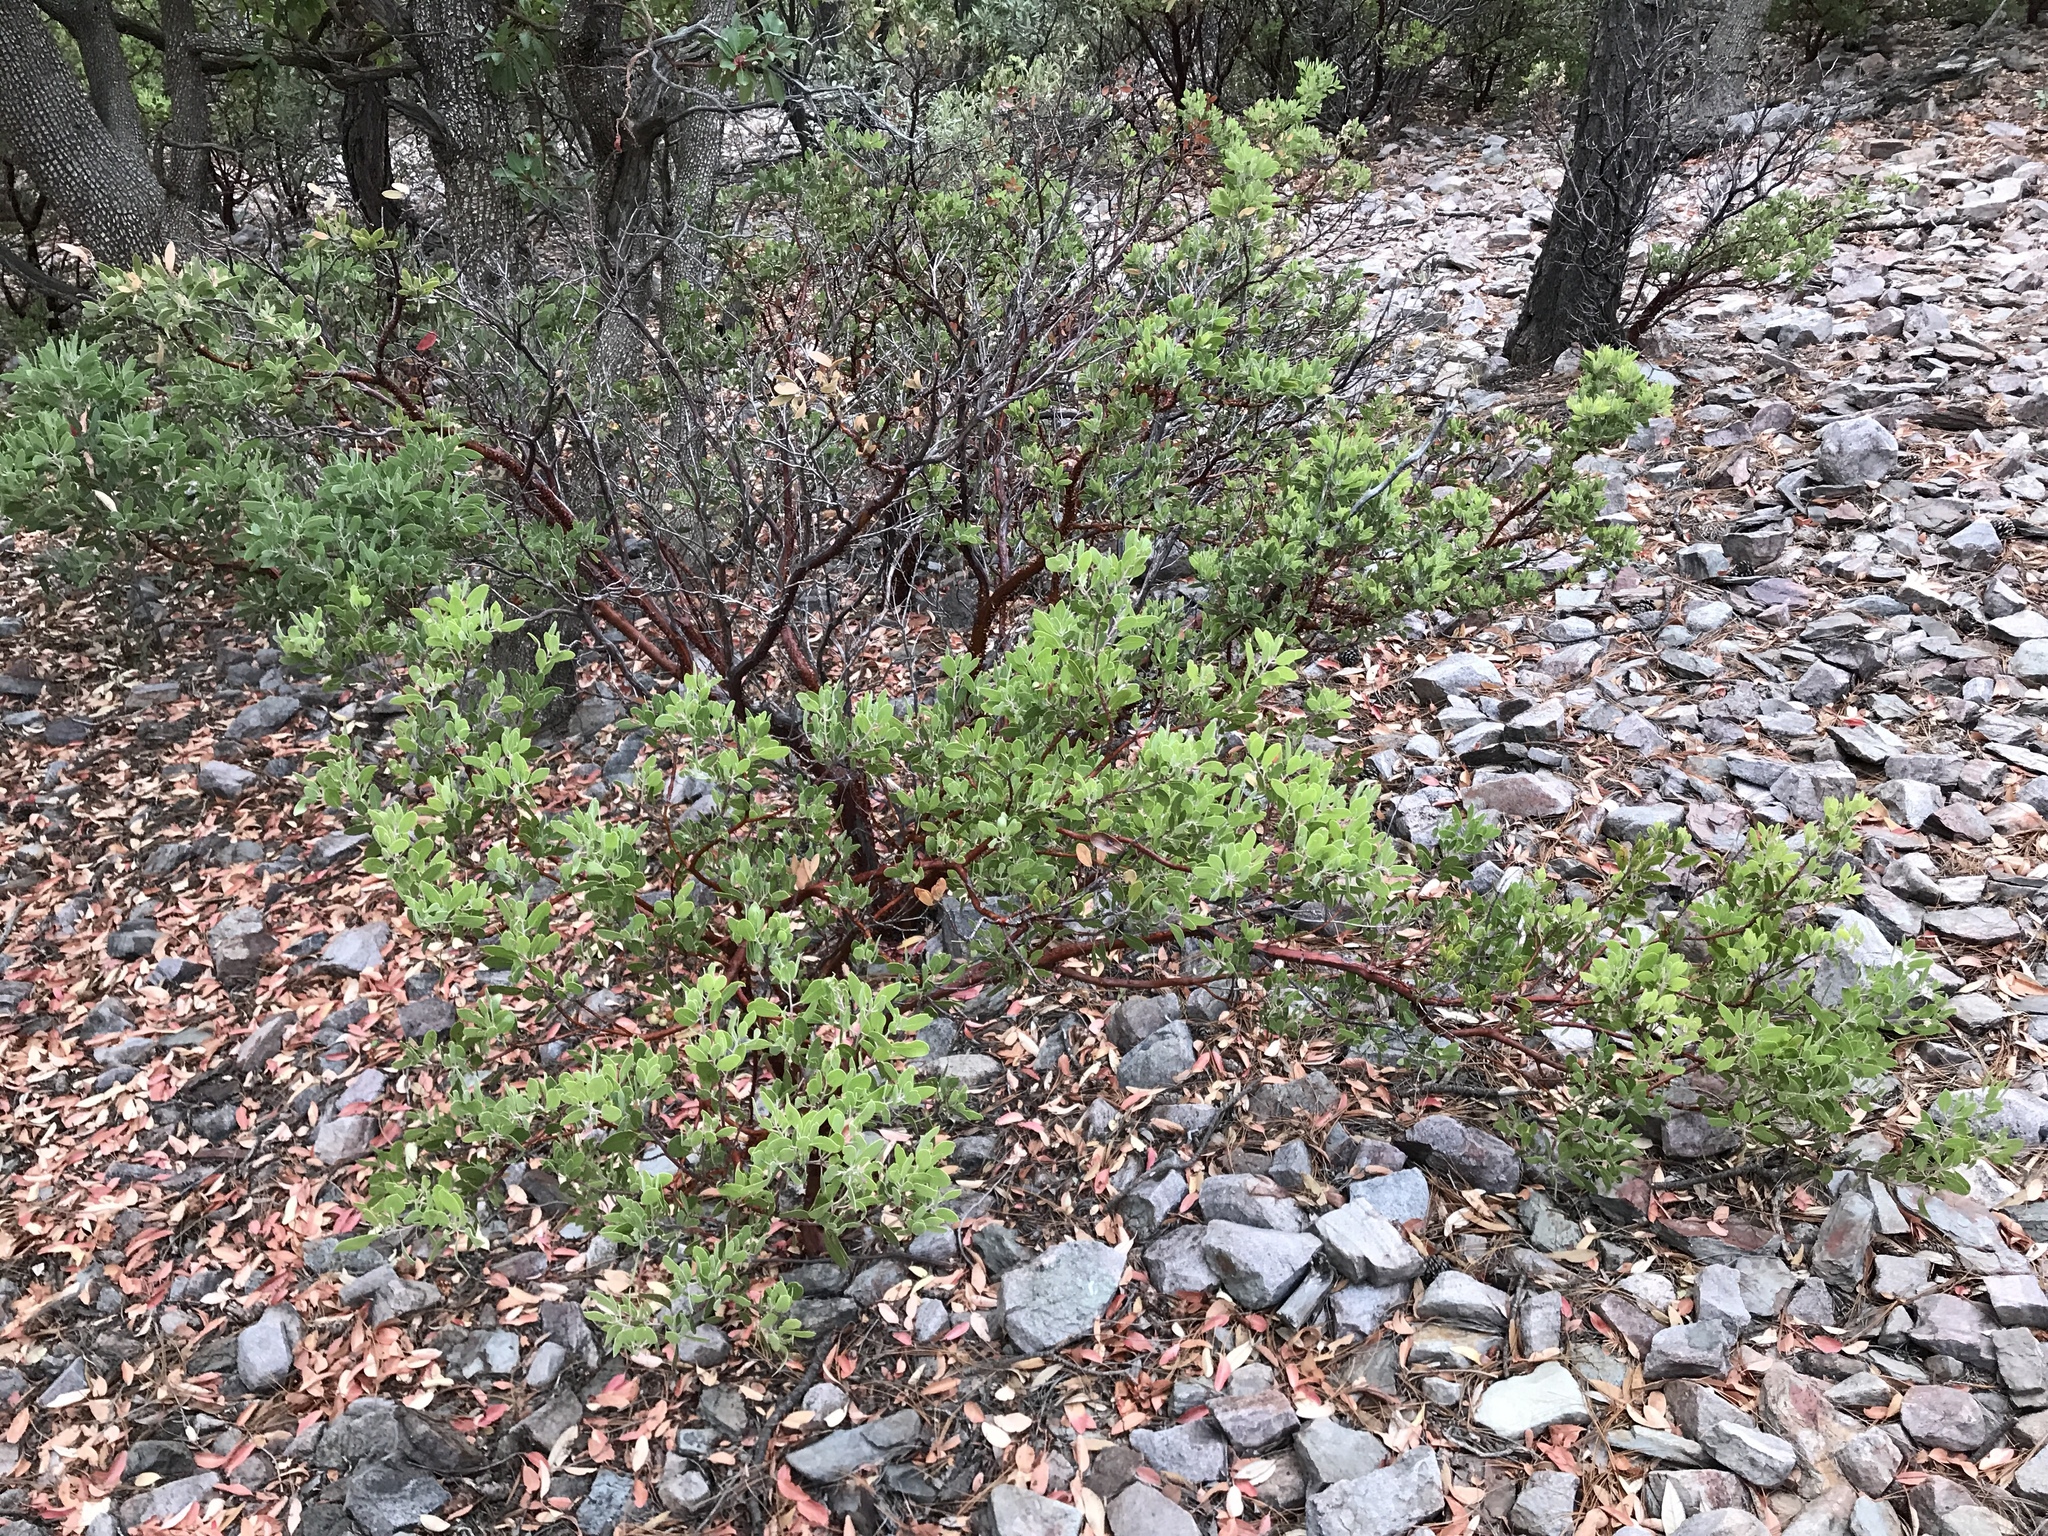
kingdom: Plantae
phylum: Tracheophyta
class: Magnoliopsida
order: Ericales
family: Ericaceae
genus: Arctostaphylos
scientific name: Arctostaphylos pungens
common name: Mexican manzanita
